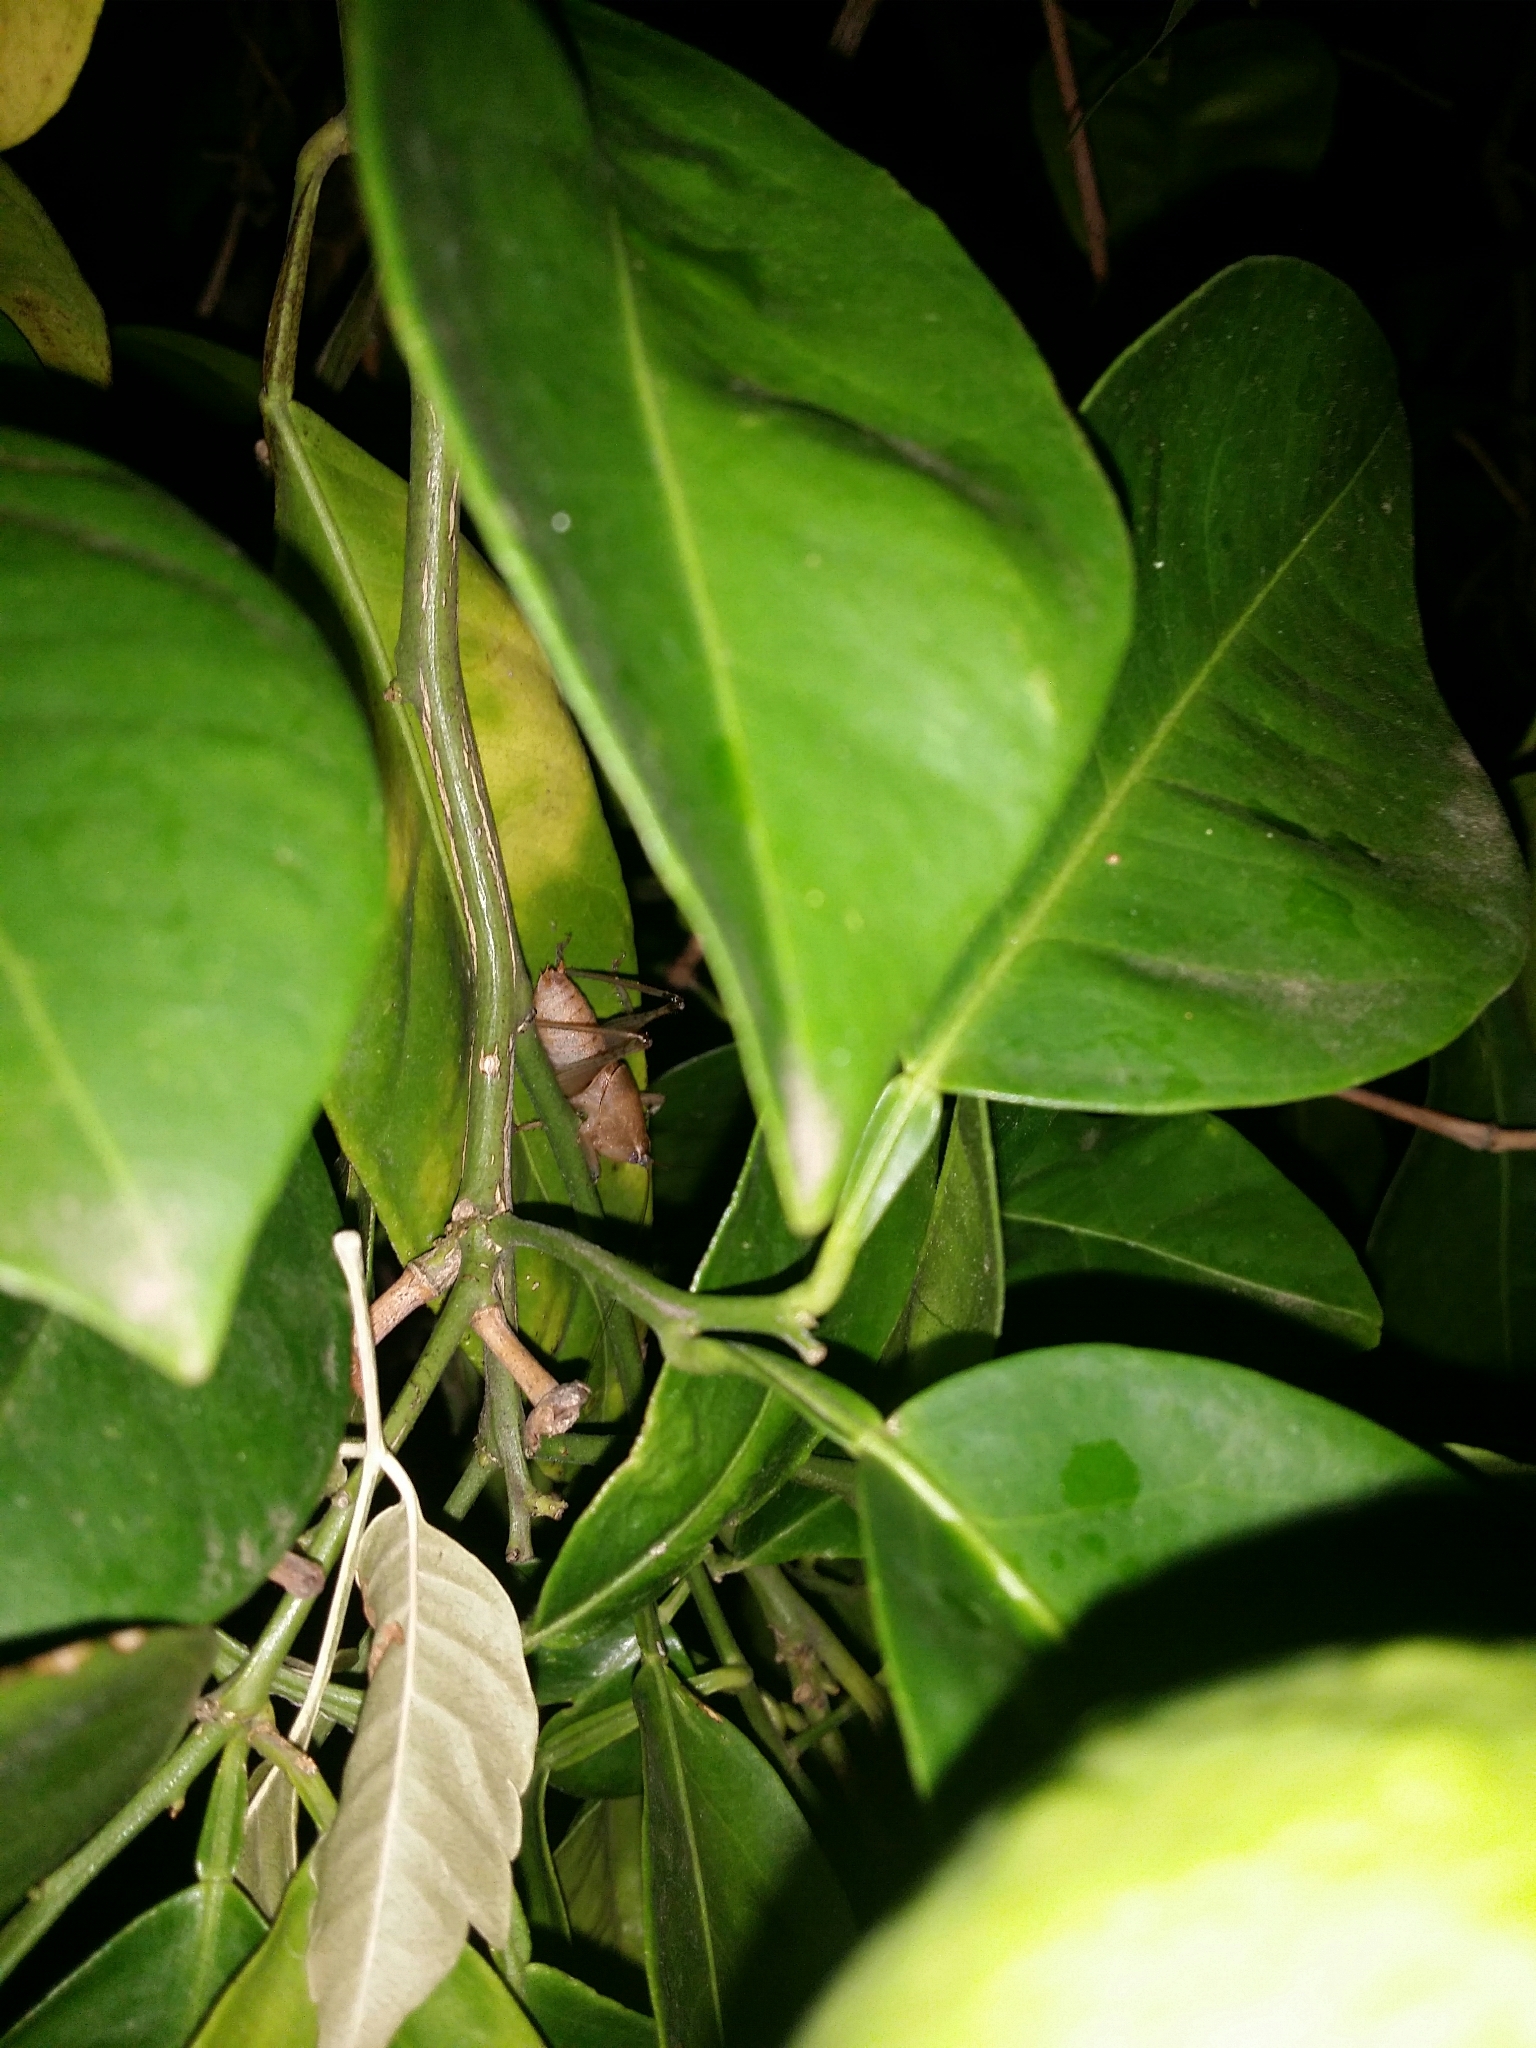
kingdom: Animalia
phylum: Arthropoda
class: Insecta
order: Orthoptera
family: Tettigoniidae
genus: Requena
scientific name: Requena verticalis
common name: Common western requena
